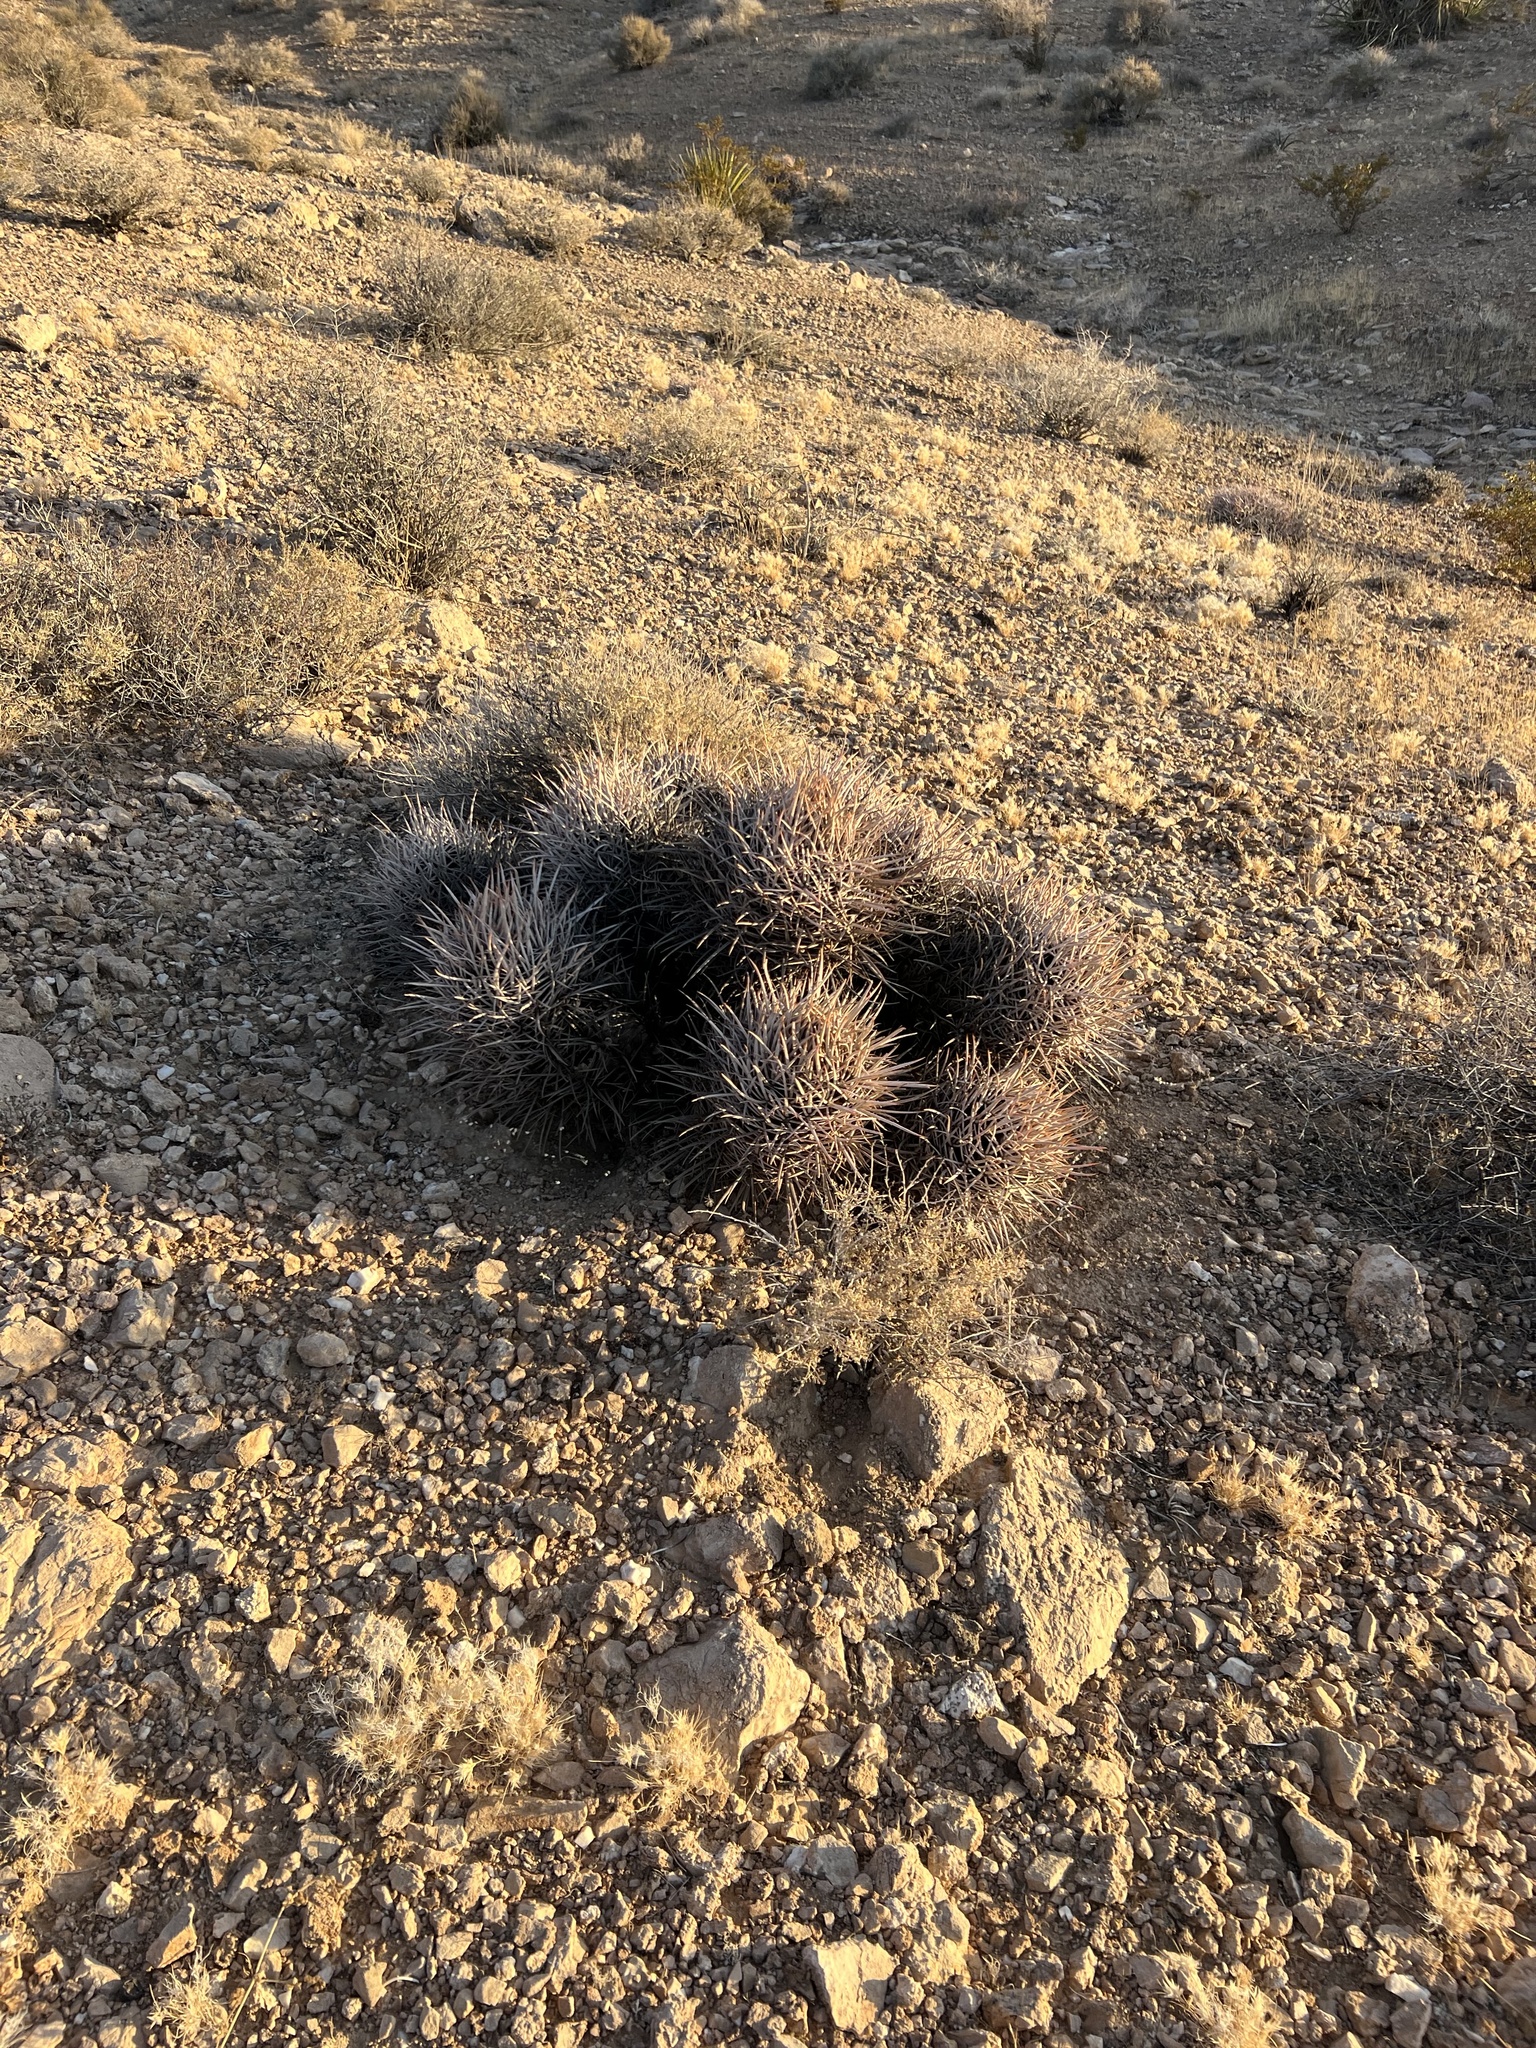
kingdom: Plantae
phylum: Tracheophyta
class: Magnoliopsida
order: Caryophyllales
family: Cactaceae
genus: Echinocactus
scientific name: Echinocactus polycephalus
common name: Cottontop cactus
